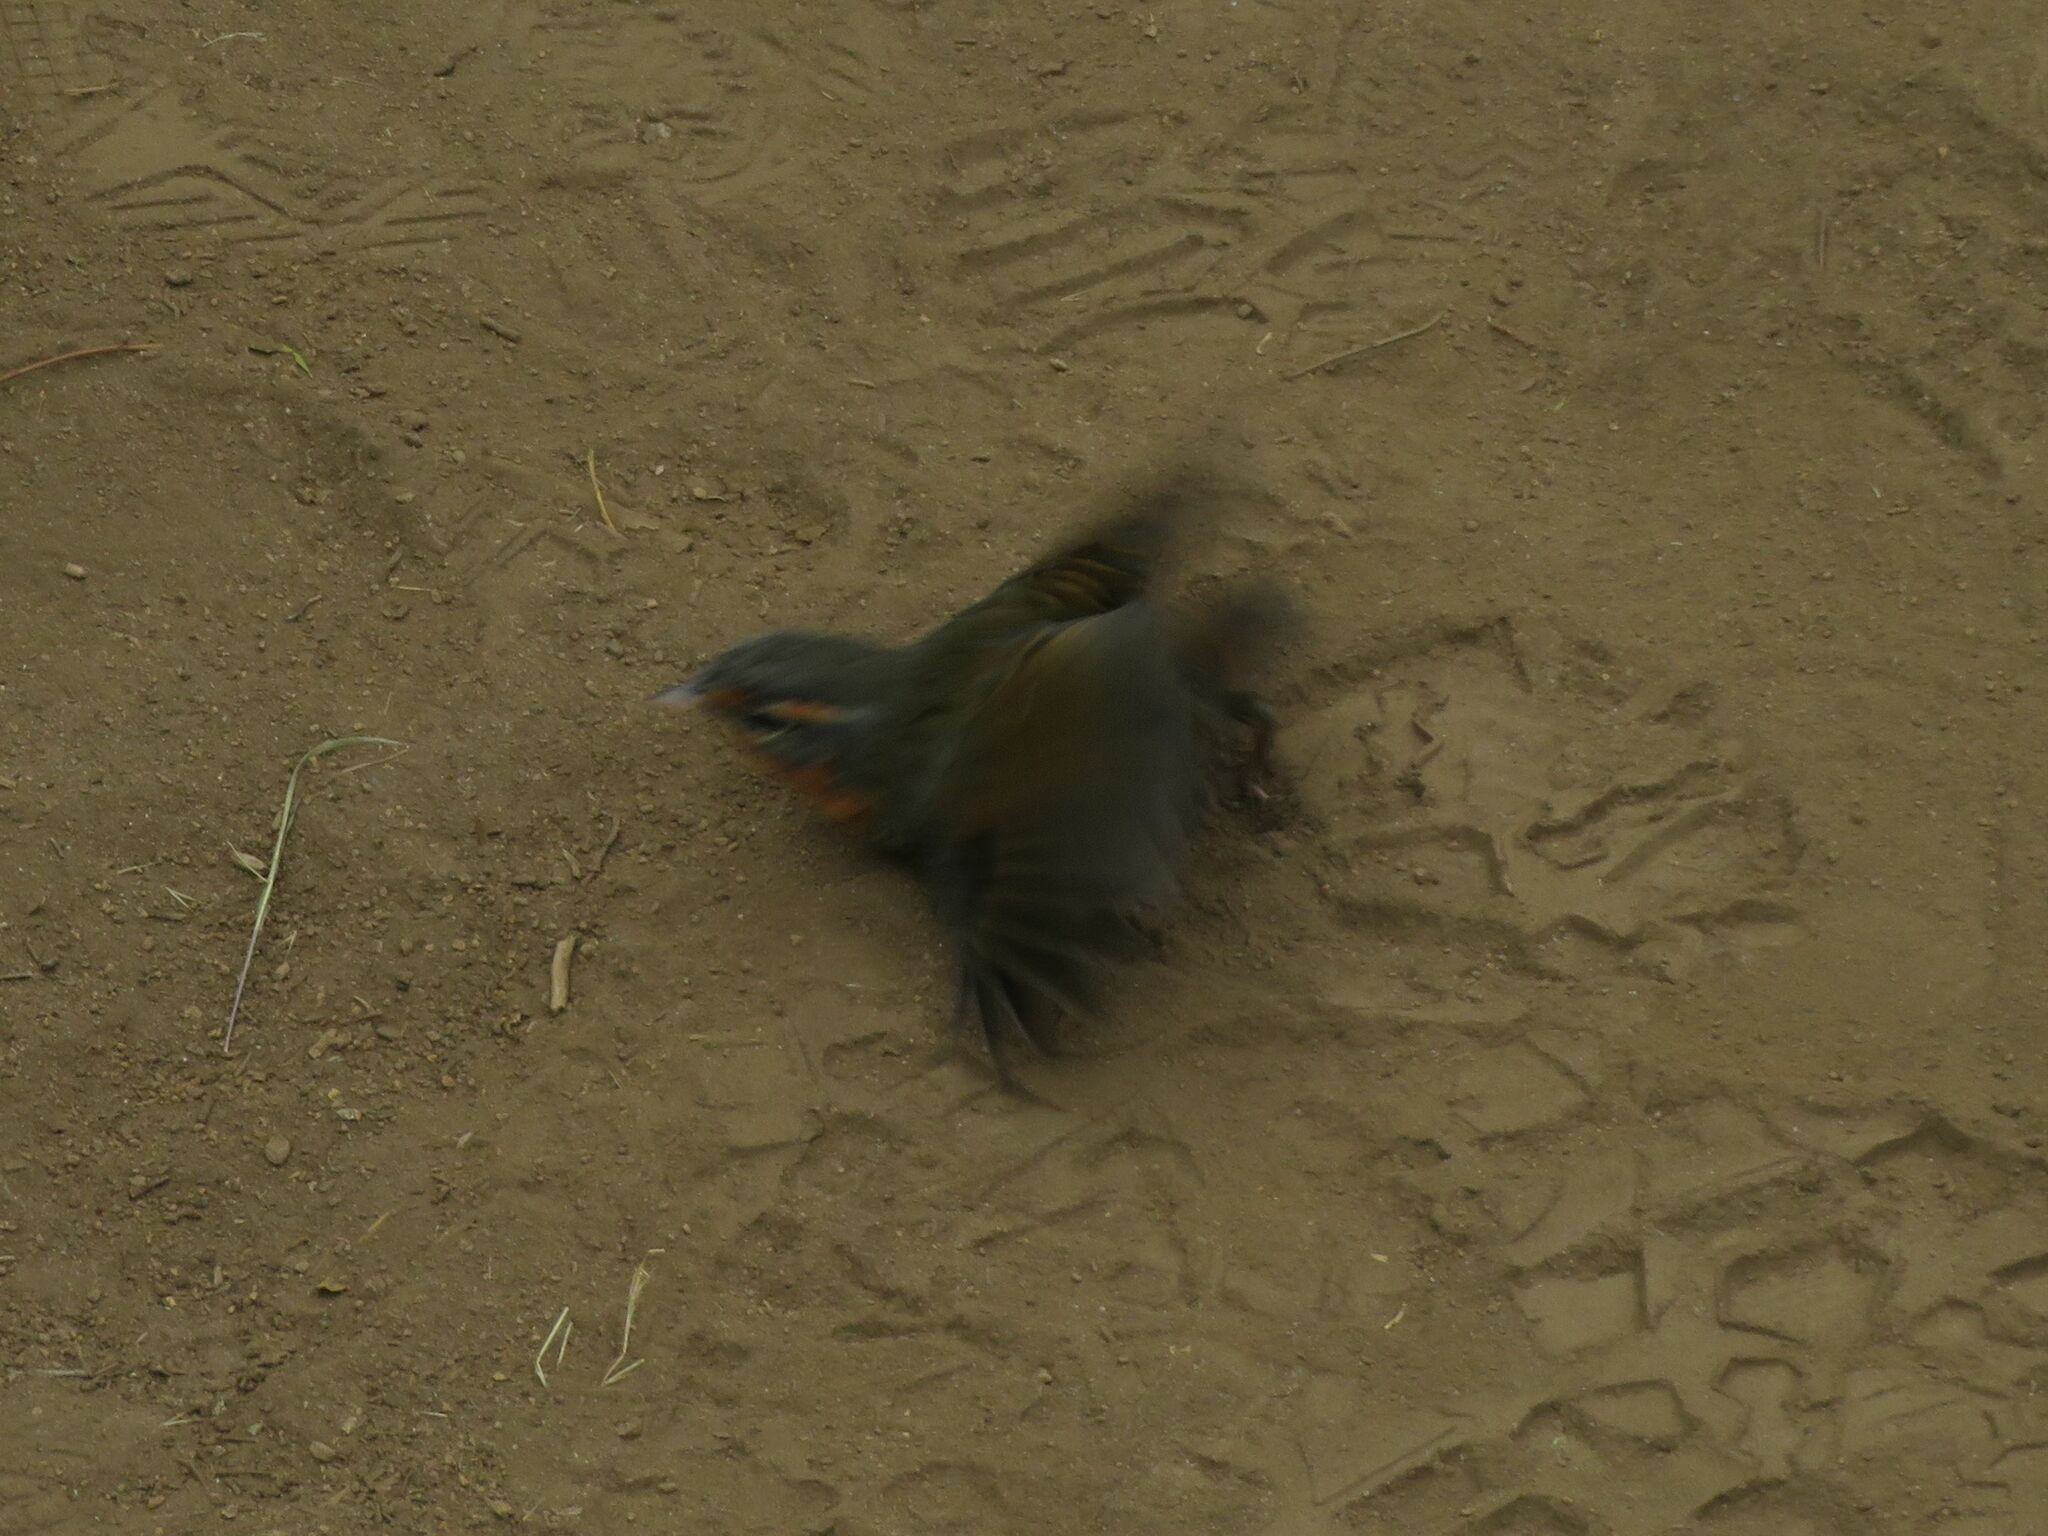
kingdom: Animalia
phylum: Chordata
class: Aves
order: Passeriformes
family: Rhinocryptidae
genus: Scelorchilus
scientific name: Scelorchilus rubecula
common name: Chucao tapaculo
